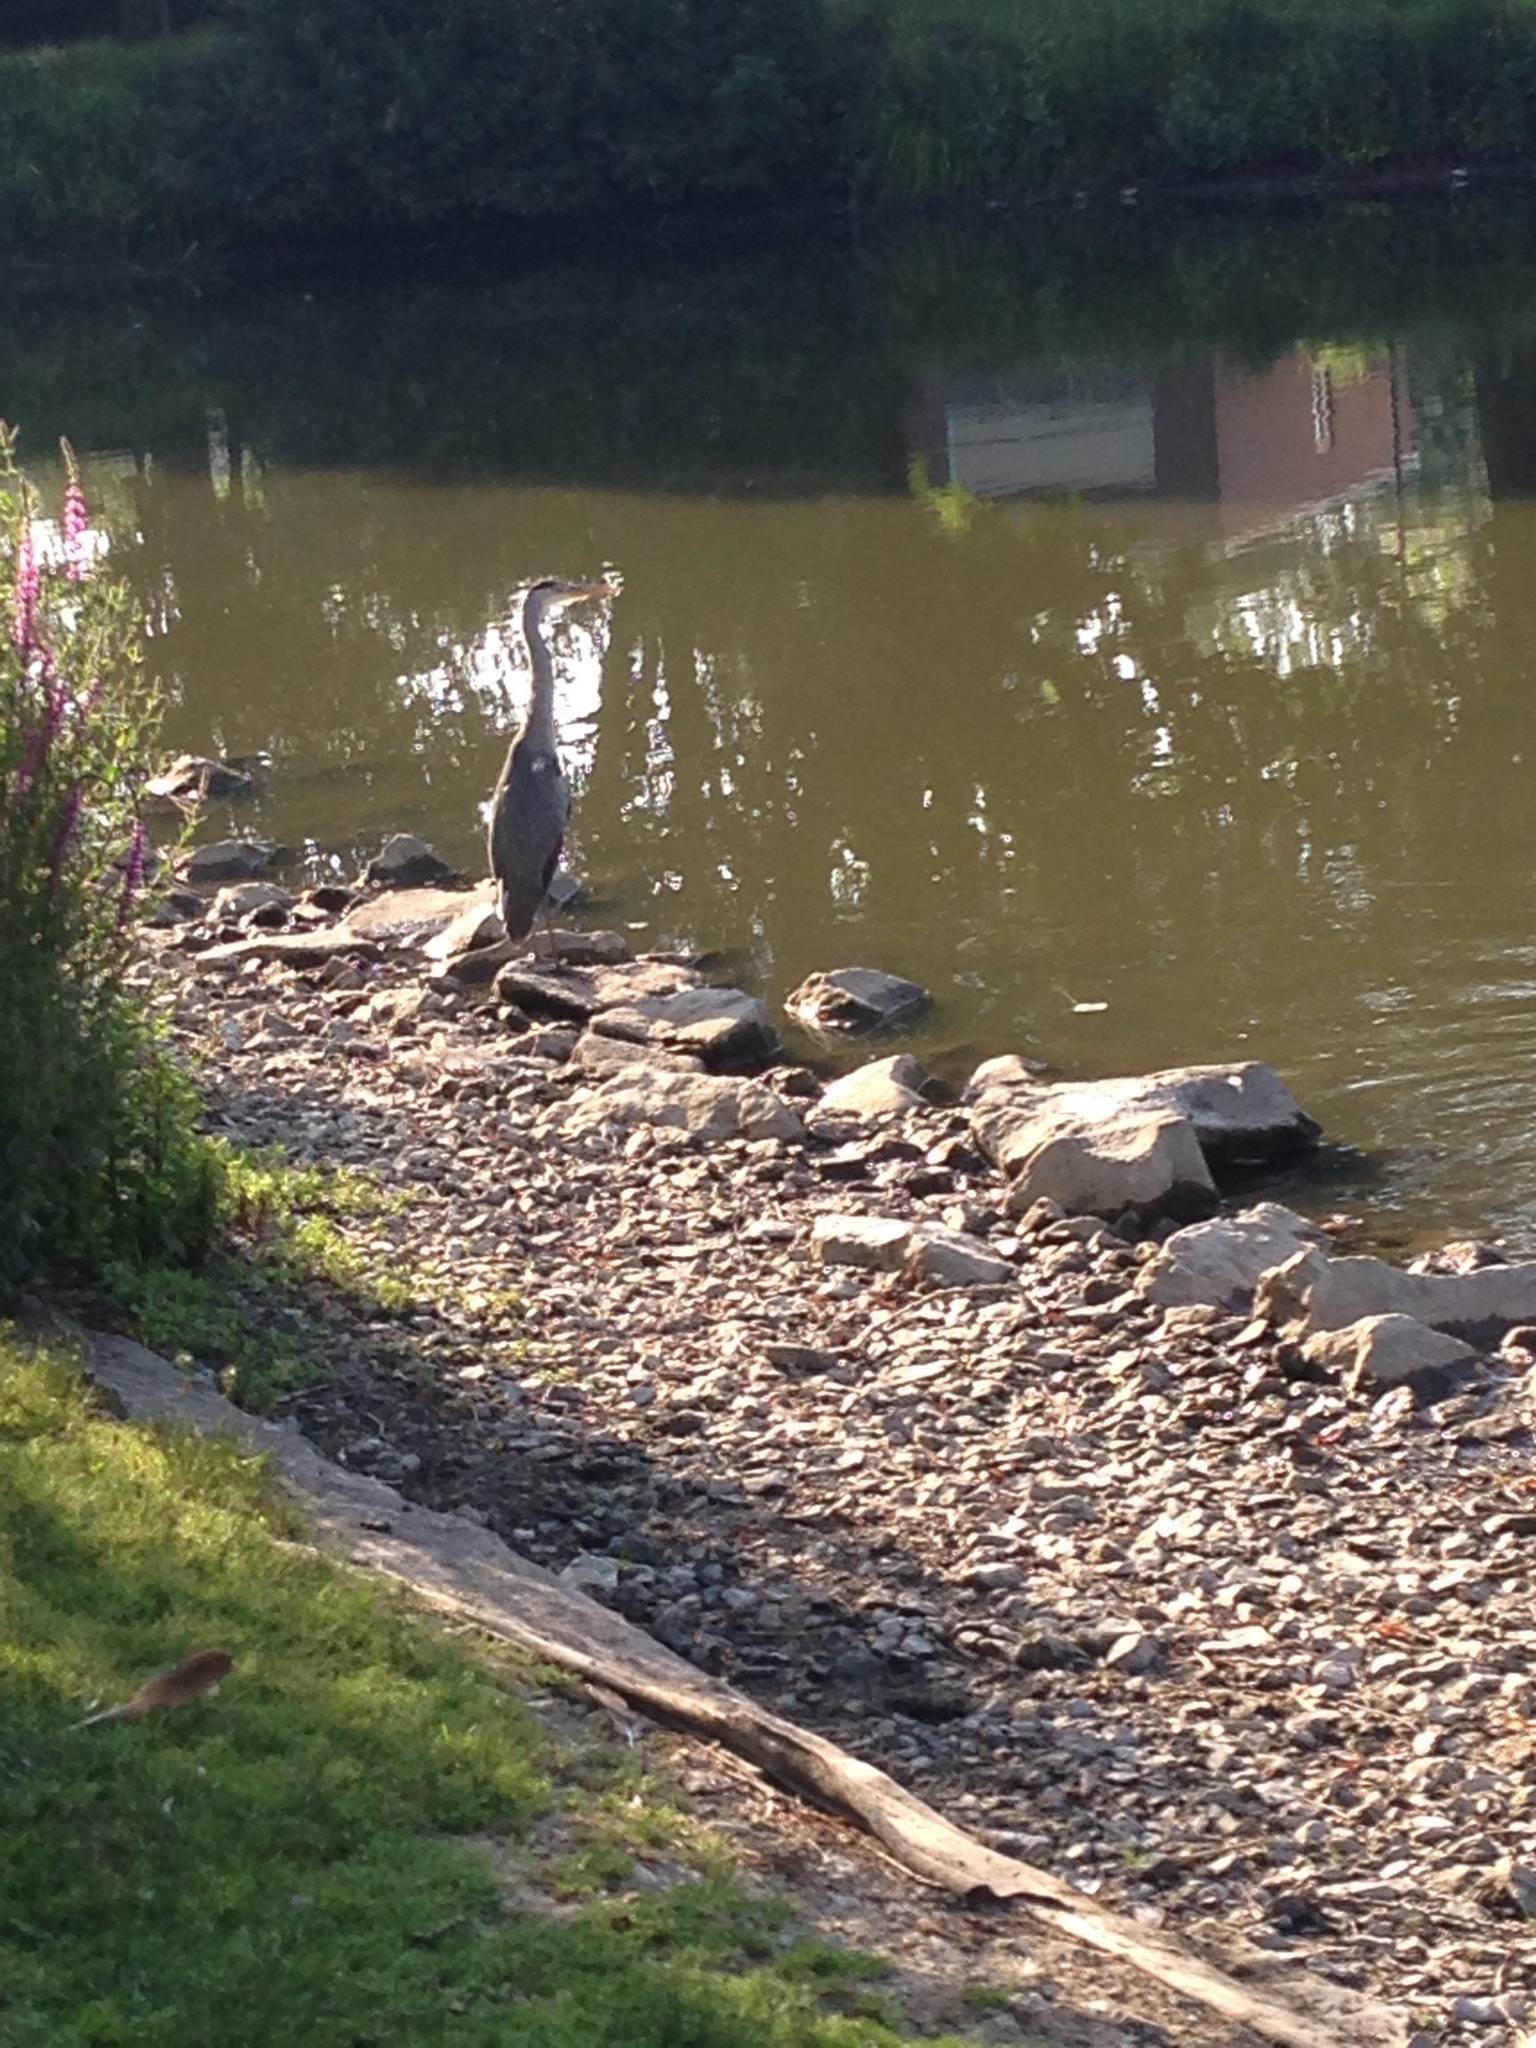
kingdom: Animalia
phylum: Chordata
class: Aves
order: Pelecaniformes
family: Ardeidae
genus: Ardea
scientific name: Ardea cinerea
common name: Grey heron
